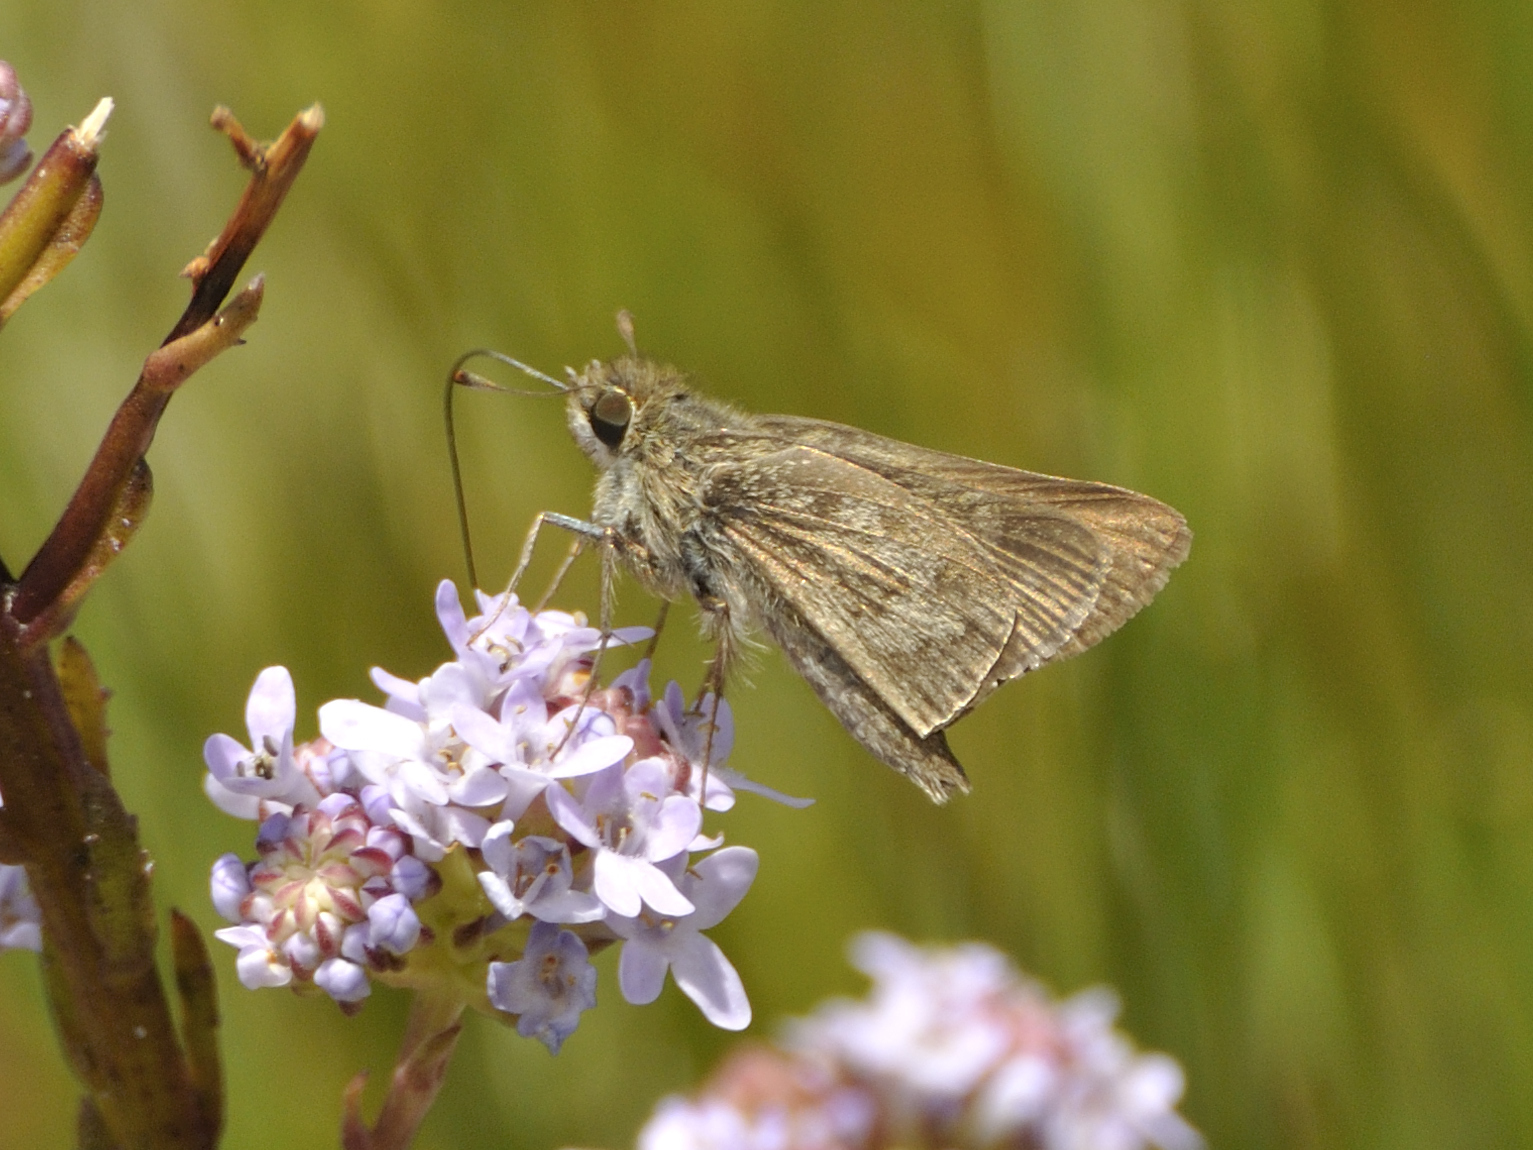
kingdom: Animalia
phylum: Arthropoda
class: Insecta
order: Lepidoptera
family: Hesperiidae
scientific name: Hesperiidae
